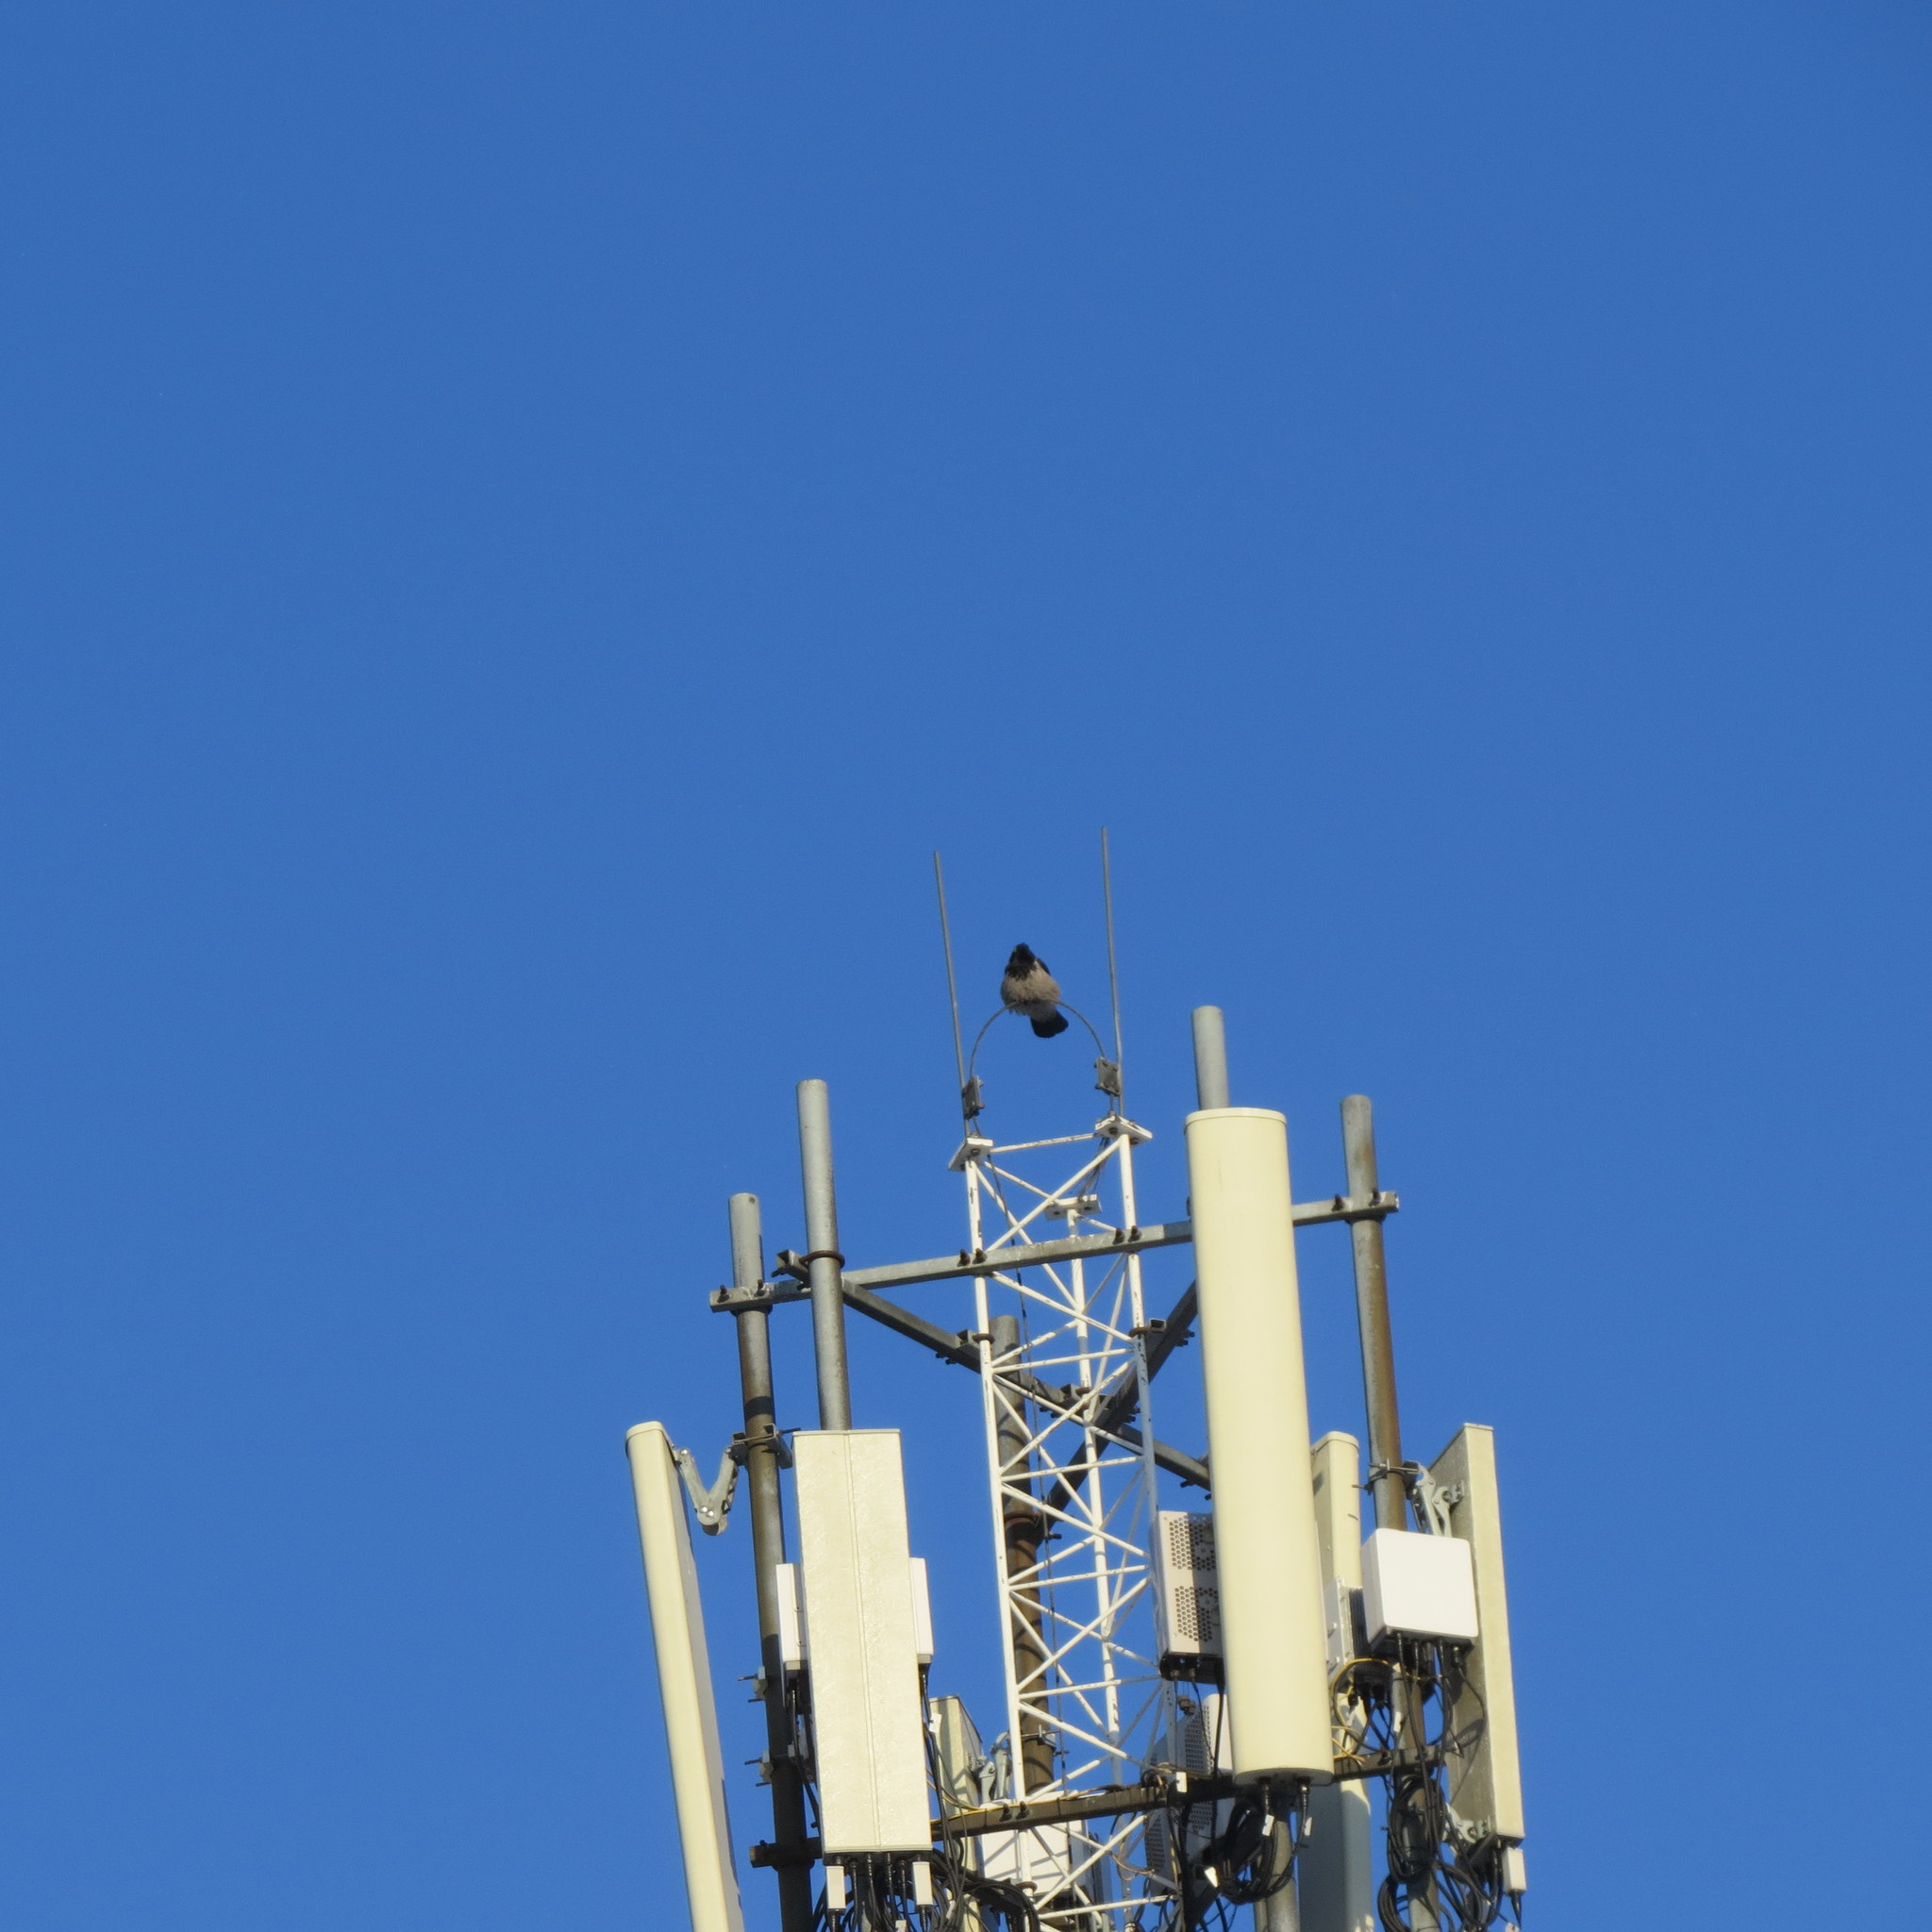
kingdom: Animalia
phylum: Chordata
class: Aves
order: Passeriformes
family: Corvidae
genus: Corvus
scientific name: Corvus cornix
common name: Hooded crow
